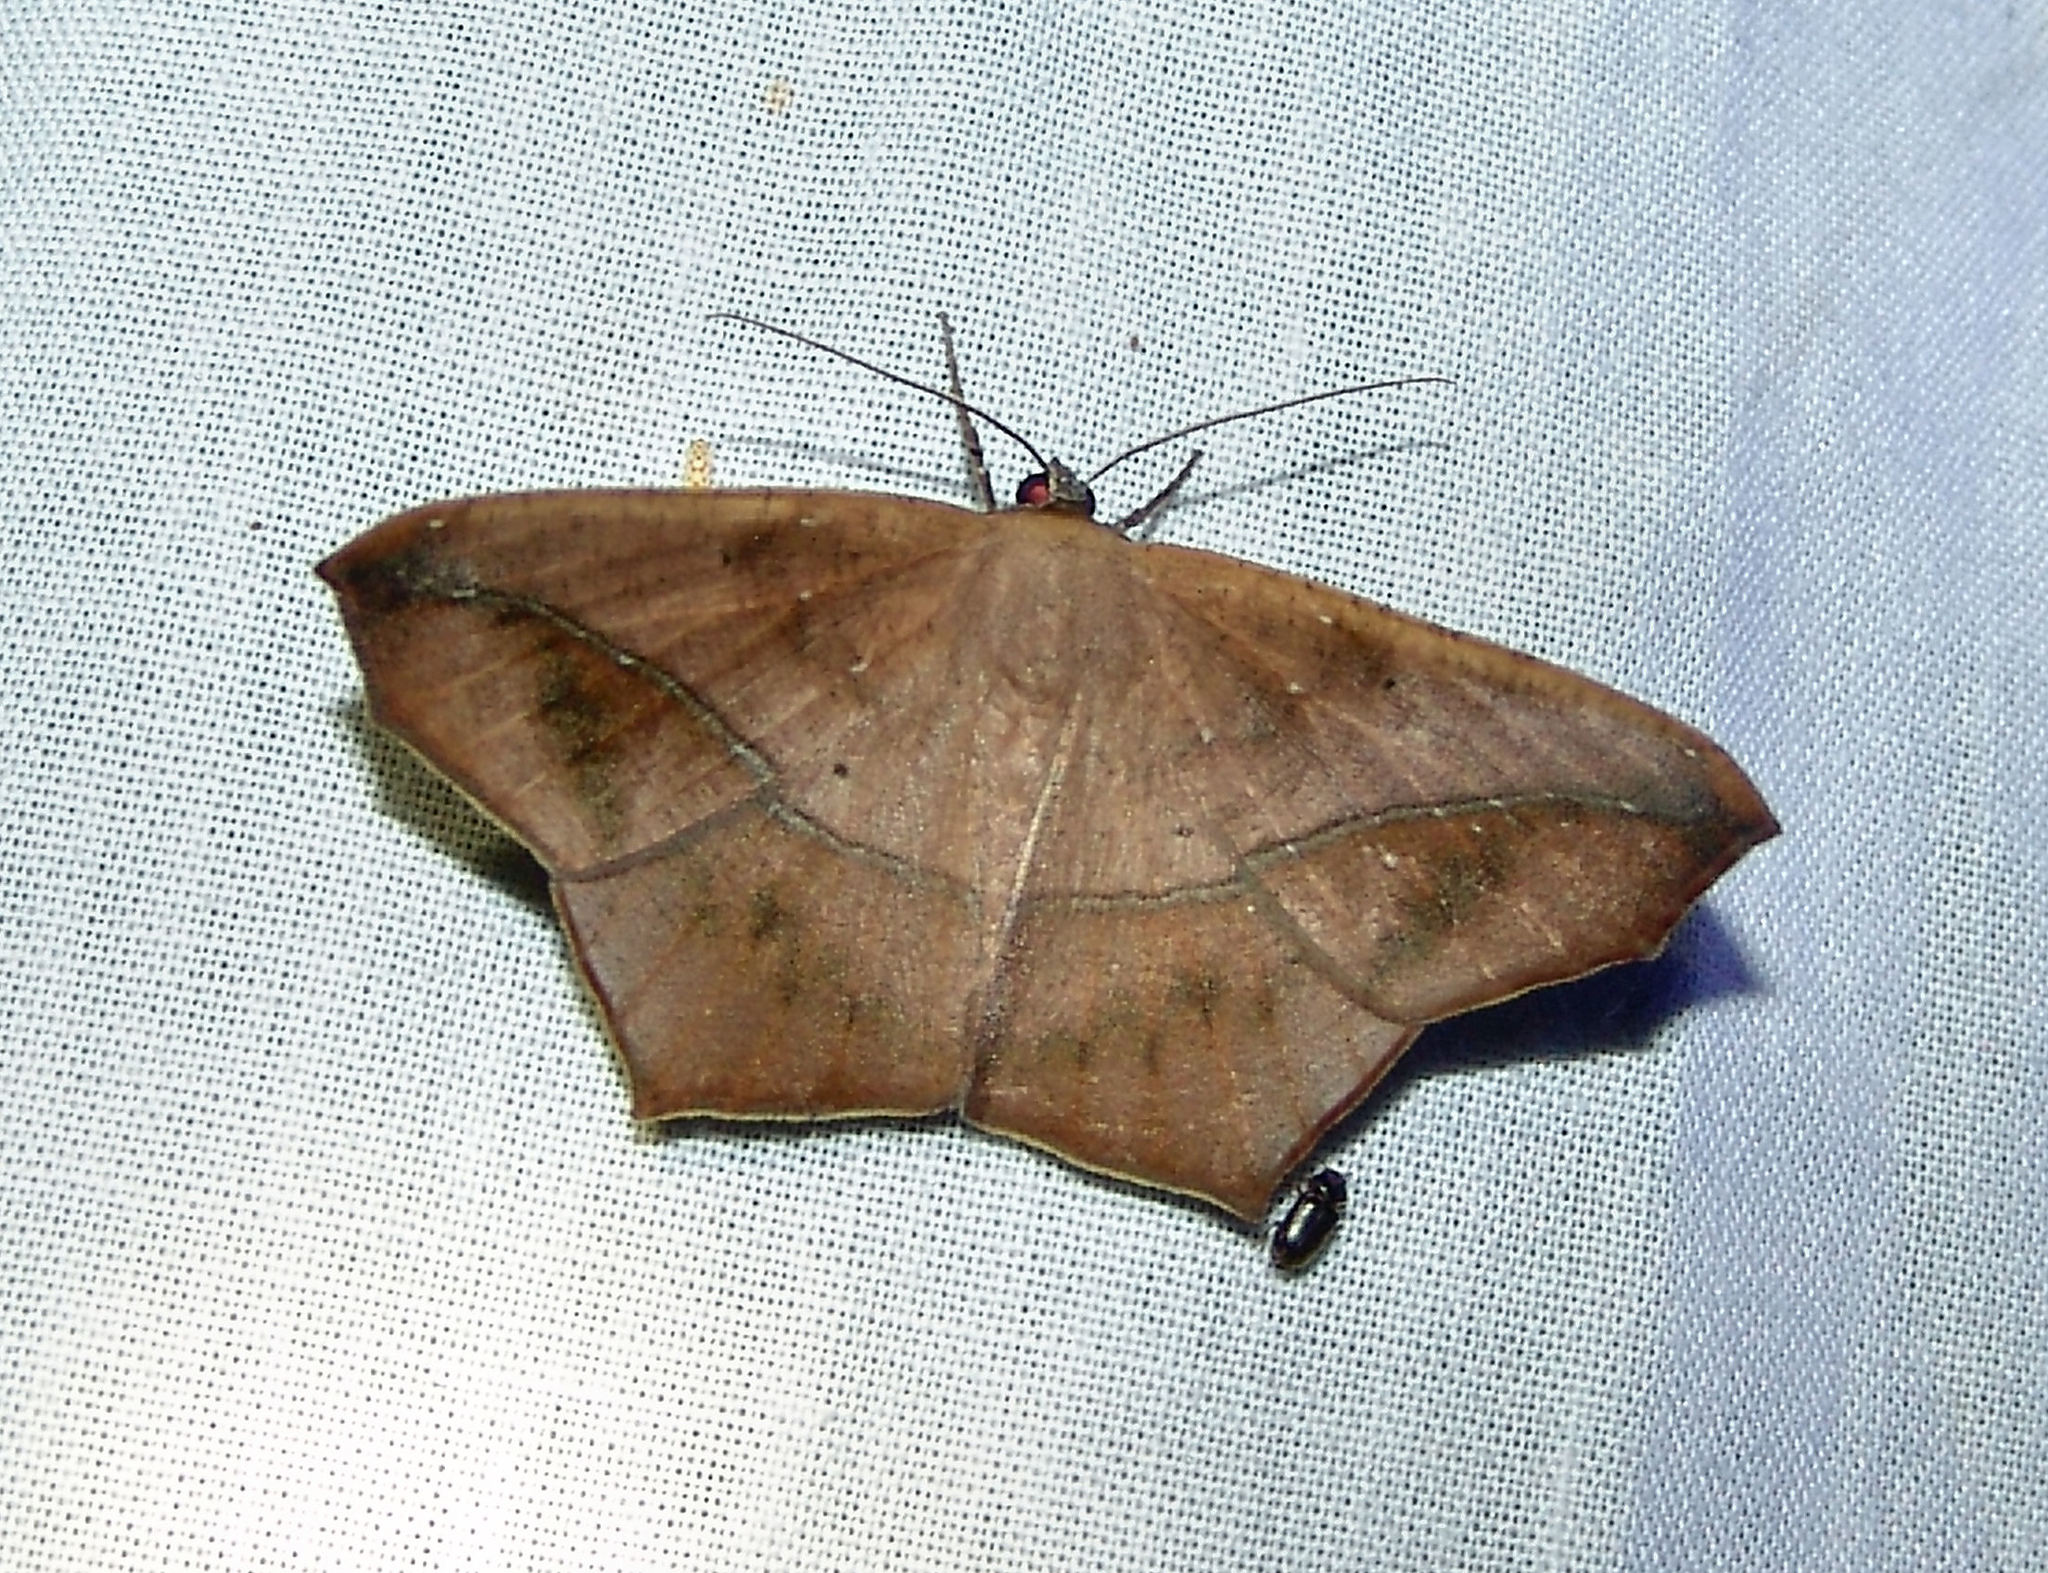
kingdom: Animalia
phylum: Arthropoda
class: Insecta
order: Lepidoptera
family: Geometridae
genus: Prochoerodes
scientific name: Prochoerodes lineola
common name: Large maple spanworm
